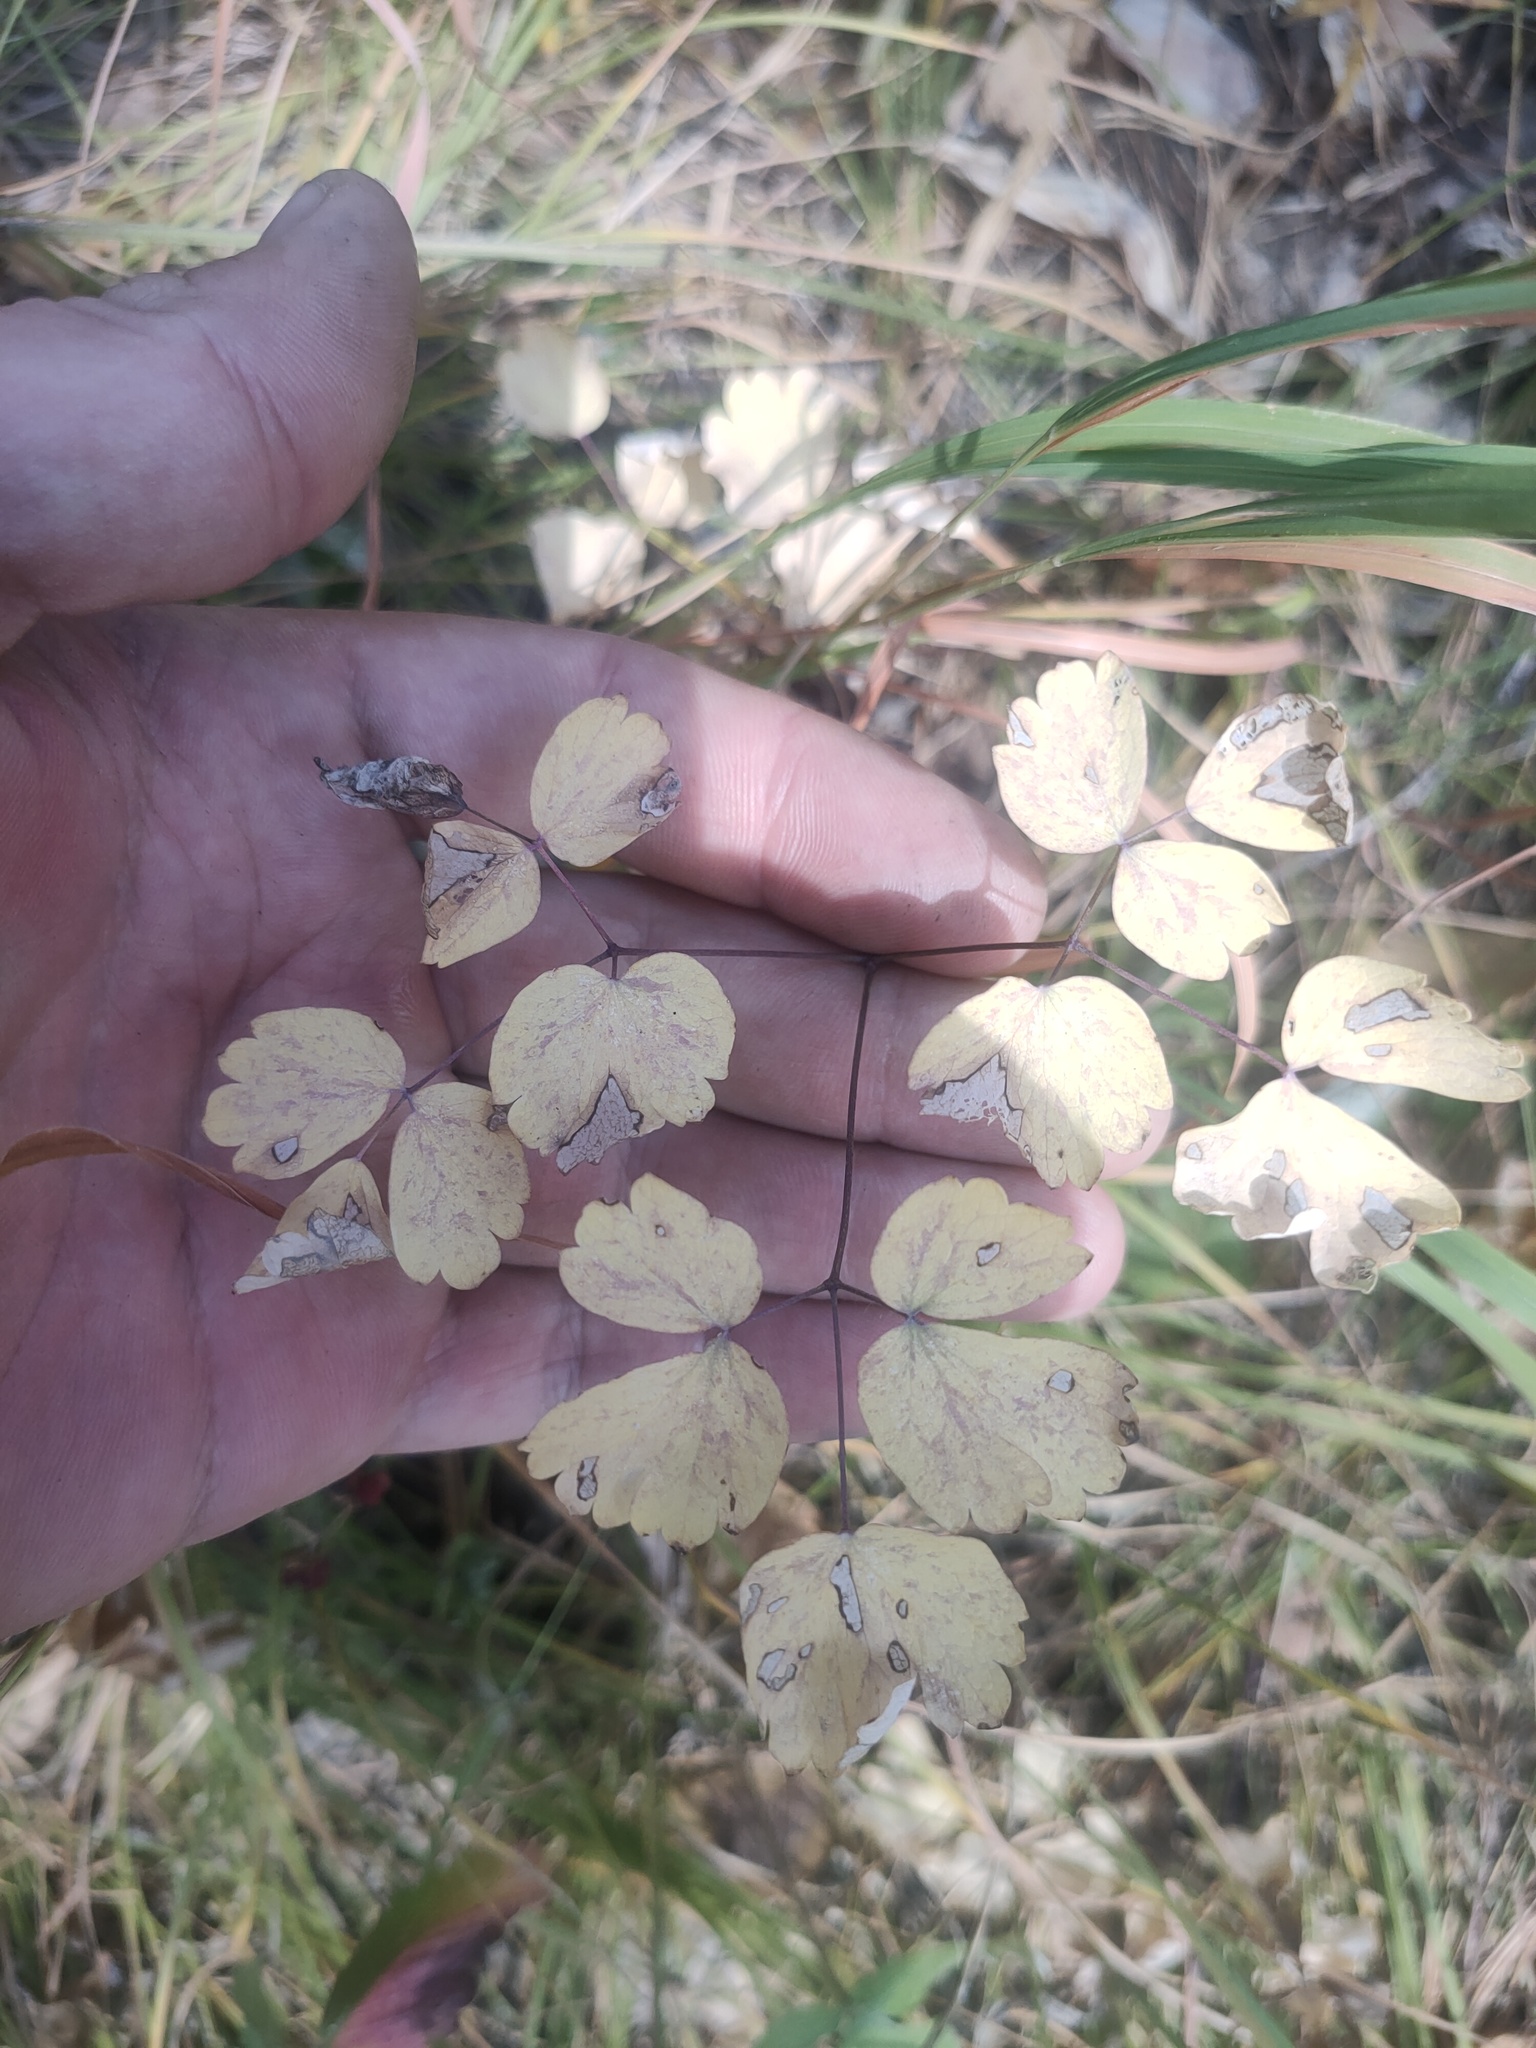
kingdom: Plantae
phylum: Tracheophyta
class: Magnoliopsida
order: Ranunculales
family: Ranunculaceae
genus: Thalictrum
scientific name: Thalictrum minus
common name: Lesser meadow-rue
